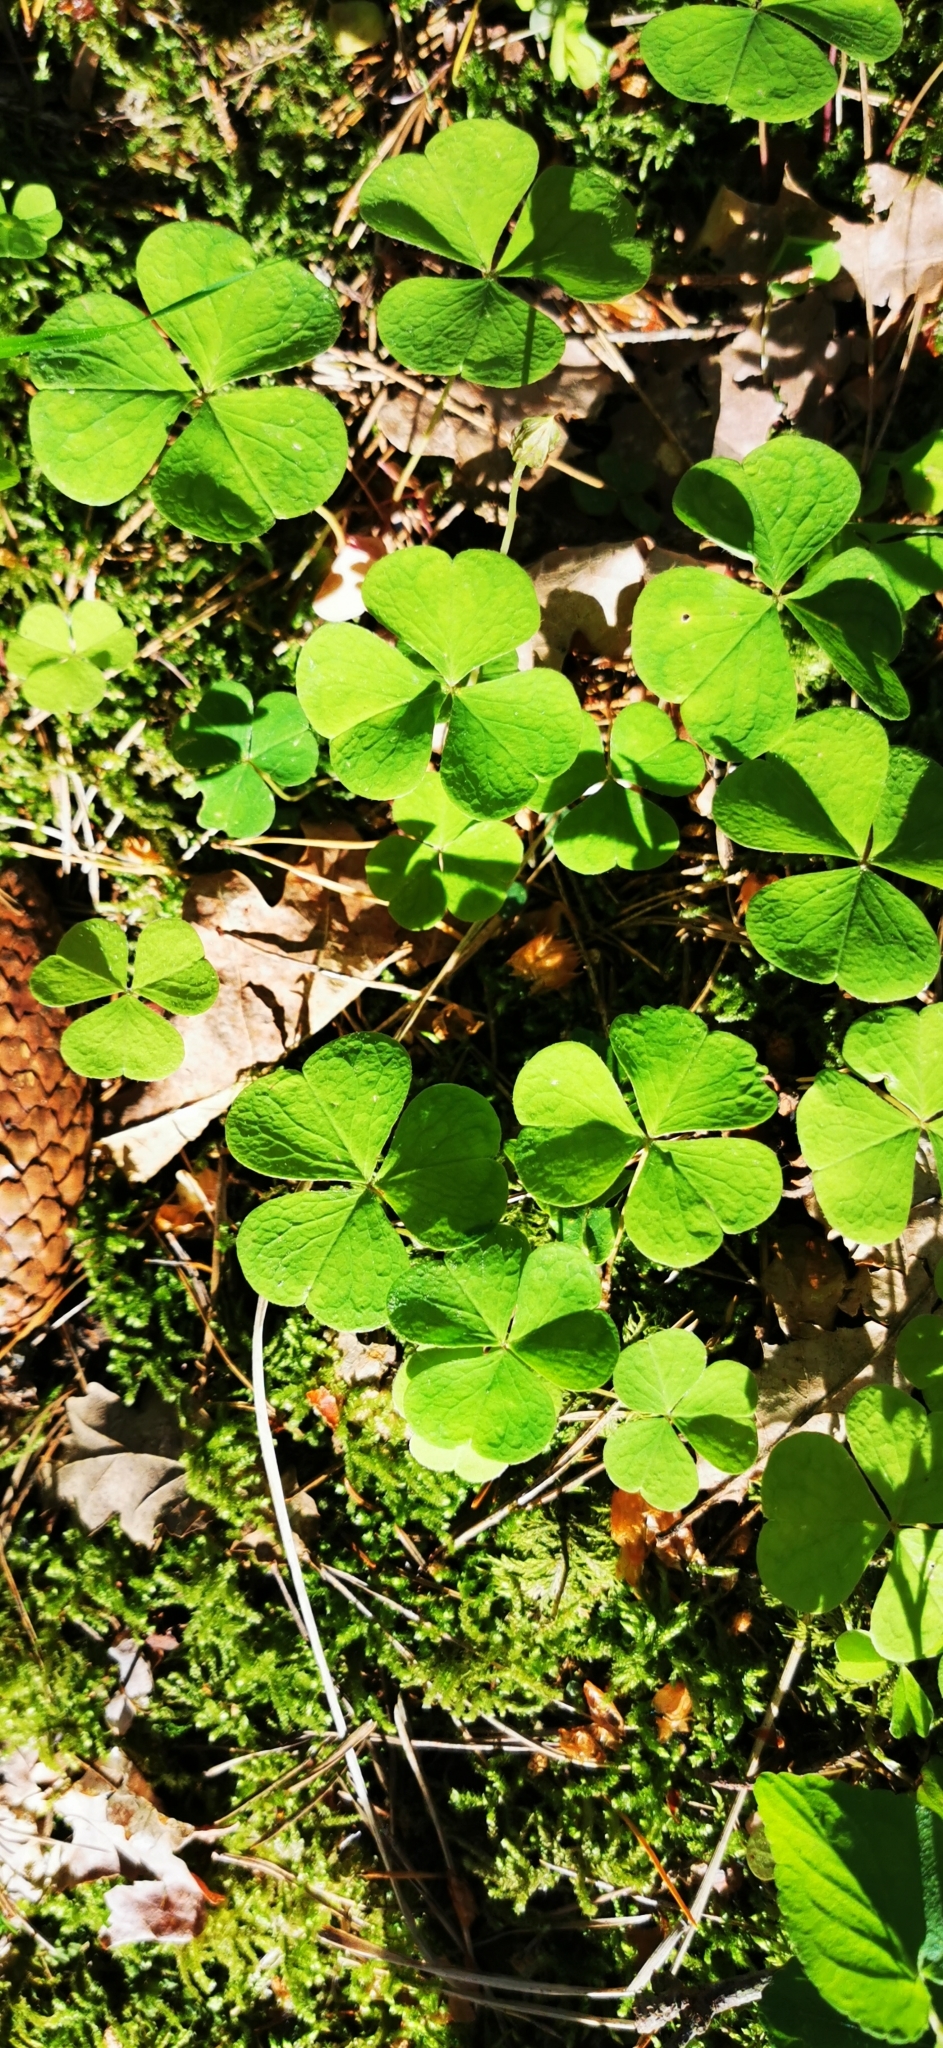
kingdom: Plantae
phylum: Tracheophyta
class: Magnoliopsida
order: Oxalidales
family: Oxalidaceae
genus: Oxalis
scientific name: Oxalis acetosella
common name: Wood-sorrel
